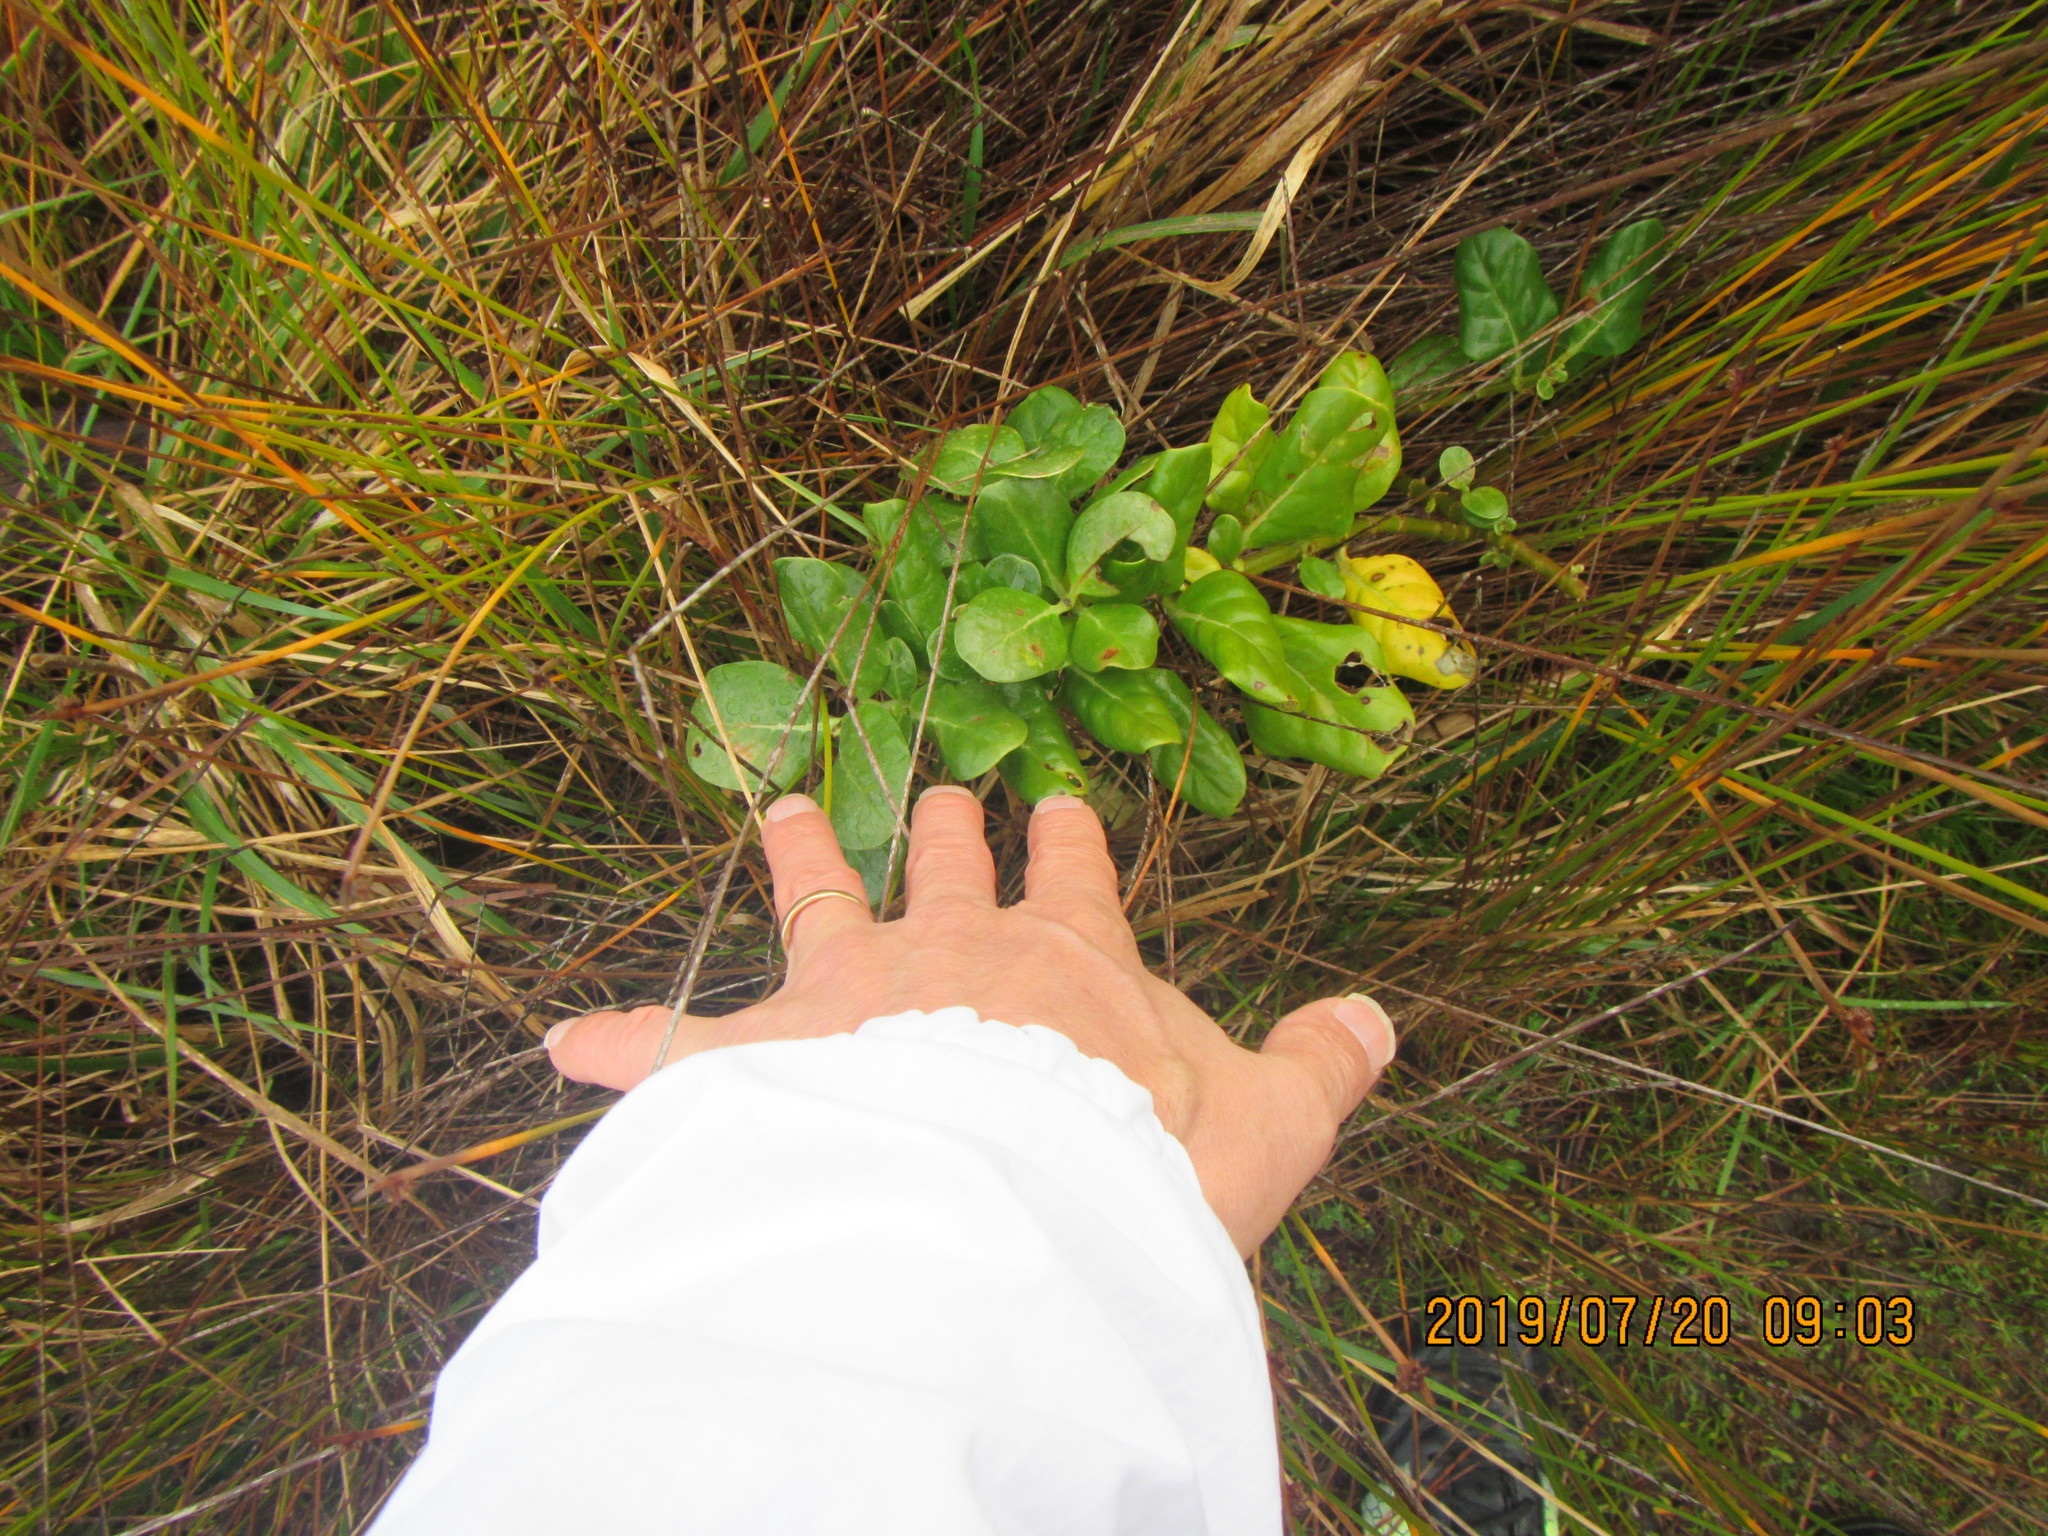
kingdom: Plantae
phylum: Tracheophyta
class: Magnoliopsida
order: Gentianales
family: Rubiaceae
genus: Coprosma
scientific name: Coprosma repens
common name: Tree bedstraw
